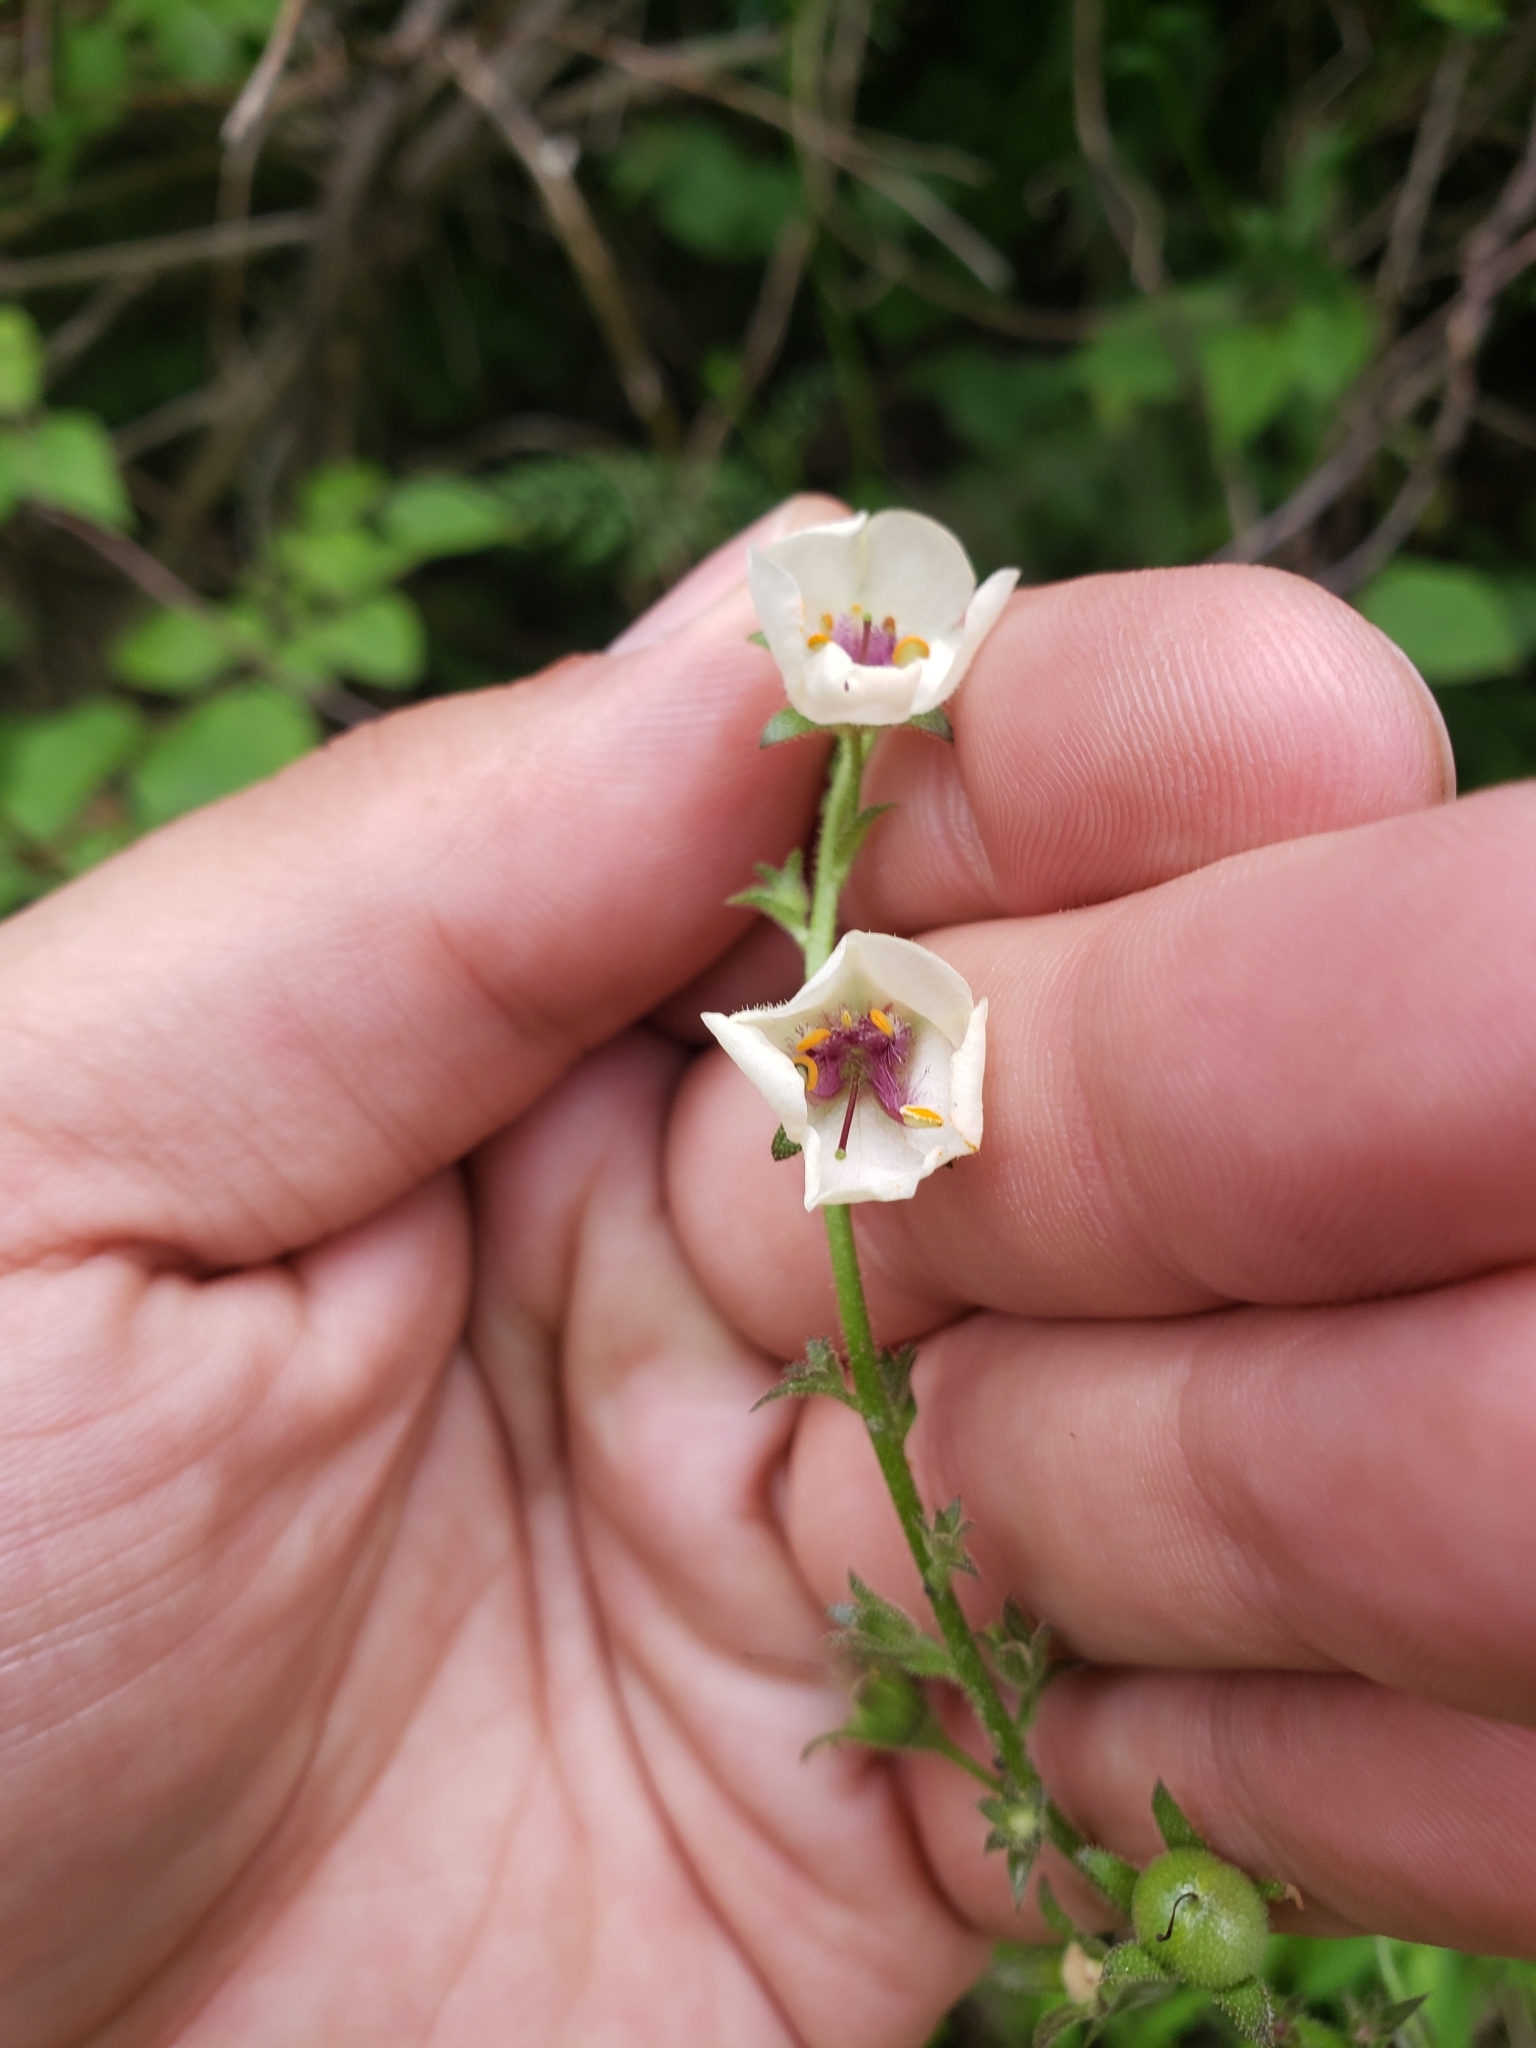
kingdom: Plantae
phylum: Tracheophyta
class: Magnoliopsida
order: Lamiales
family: Scrophulariaceae
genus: Verbascum
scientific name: Verbascum blattaria
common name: Moth mullein
